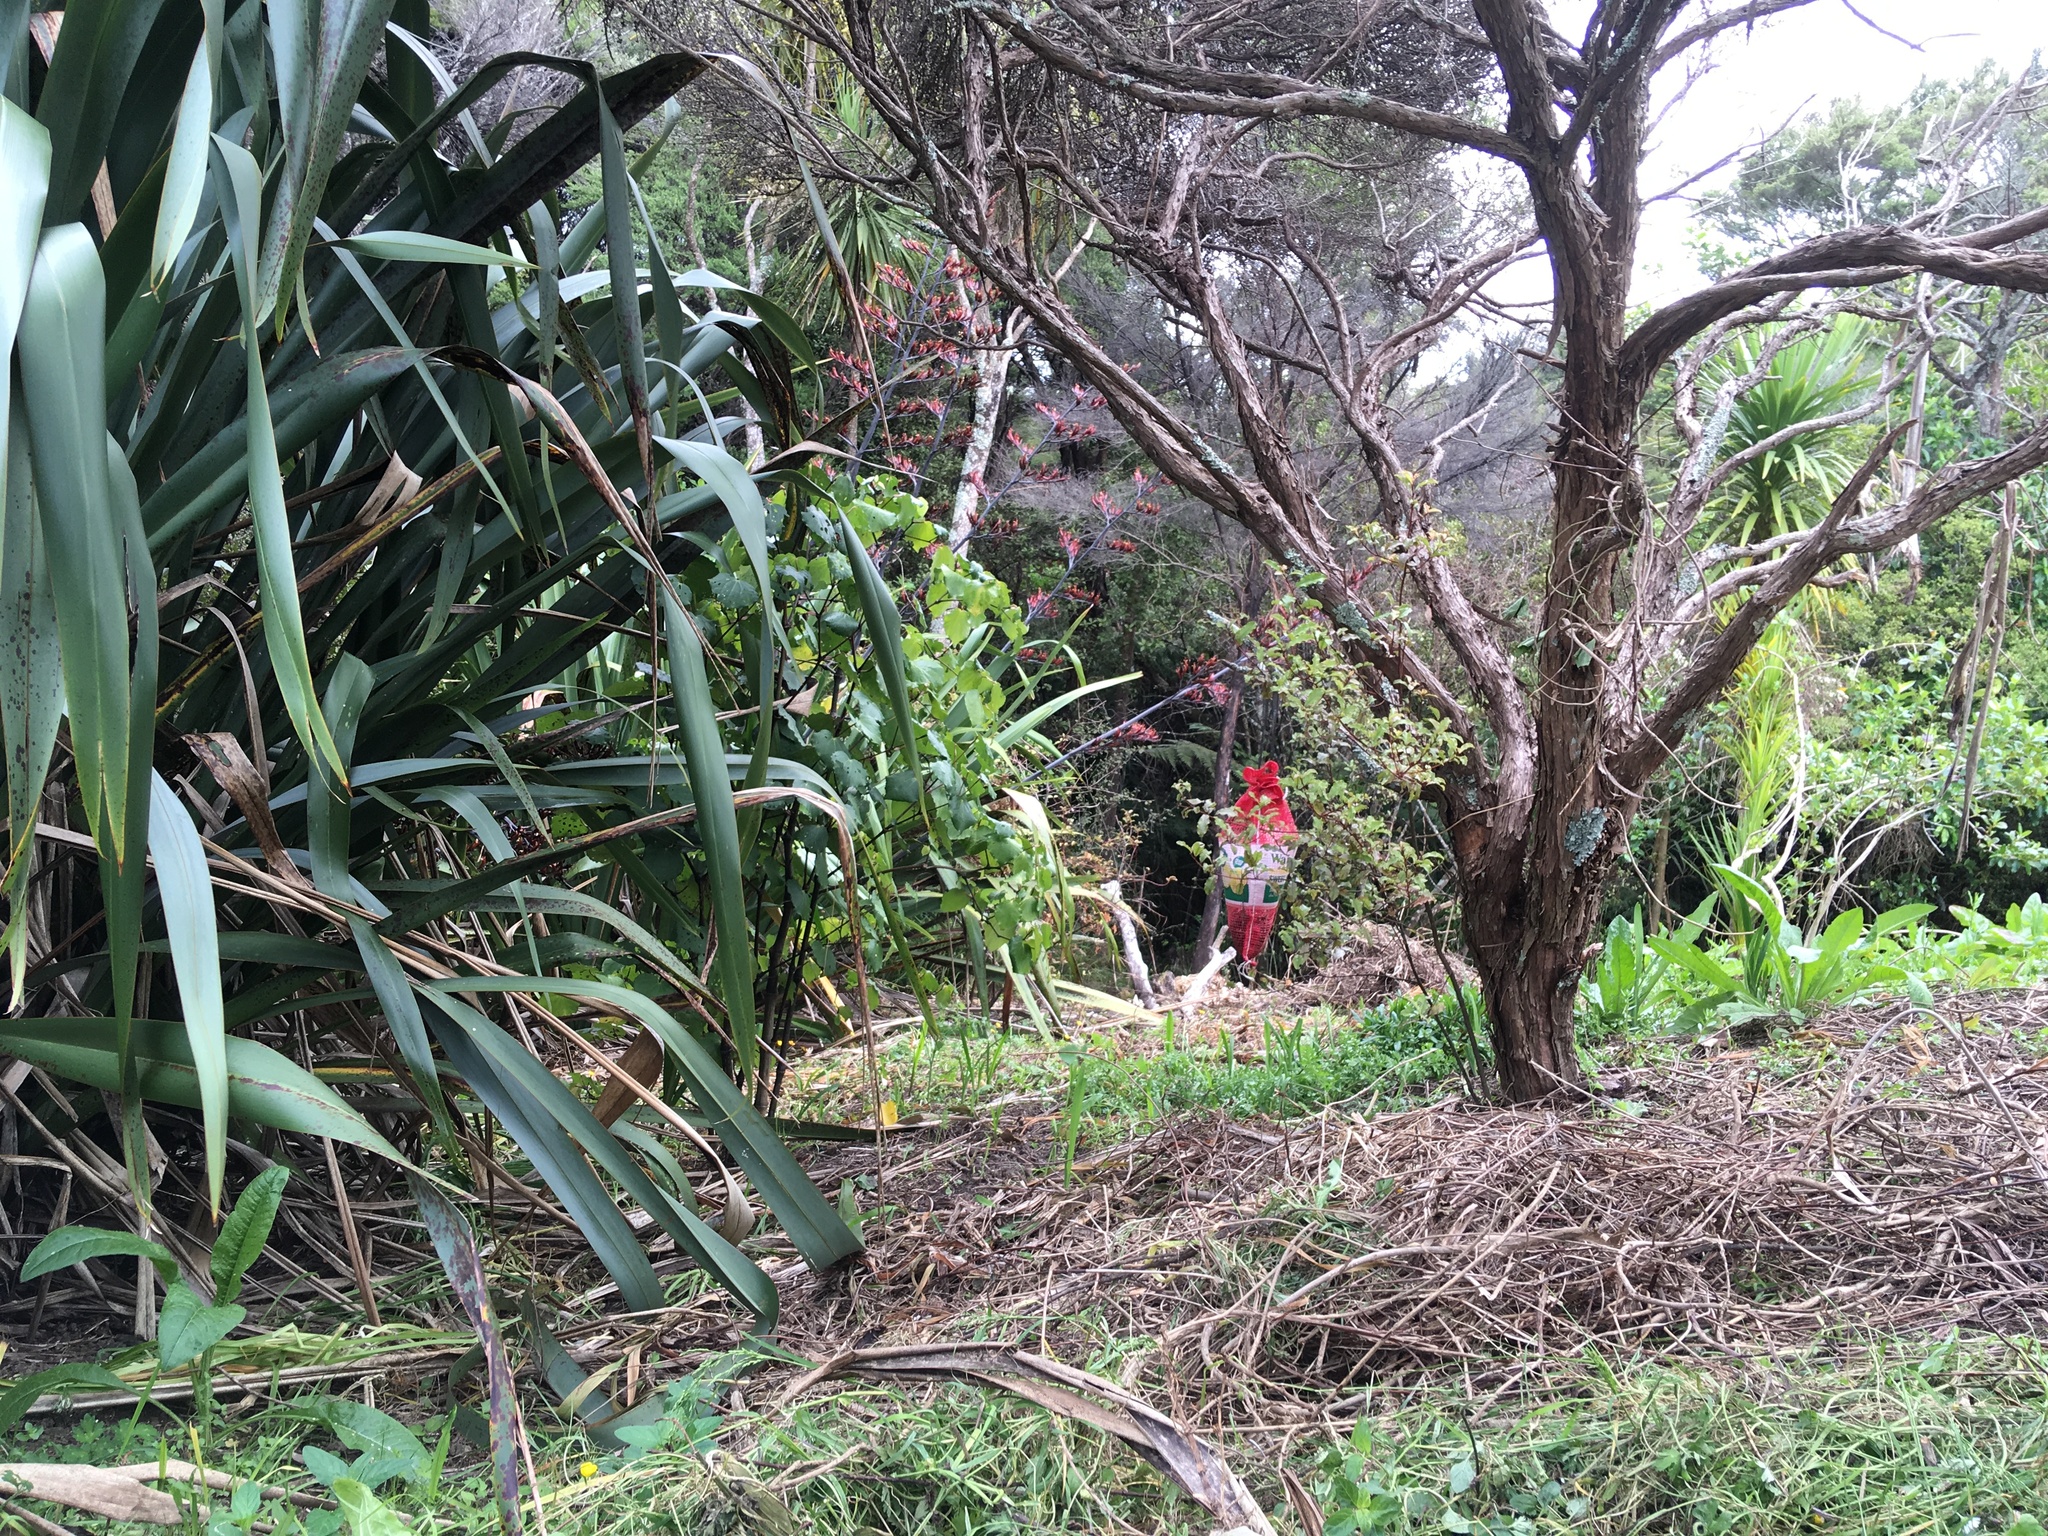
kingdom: Plantae
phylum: Tracheophyta
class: Magnoliopsida
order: Ericales
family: Primulaceae
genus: Myrsine
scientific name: Myrsine australis
